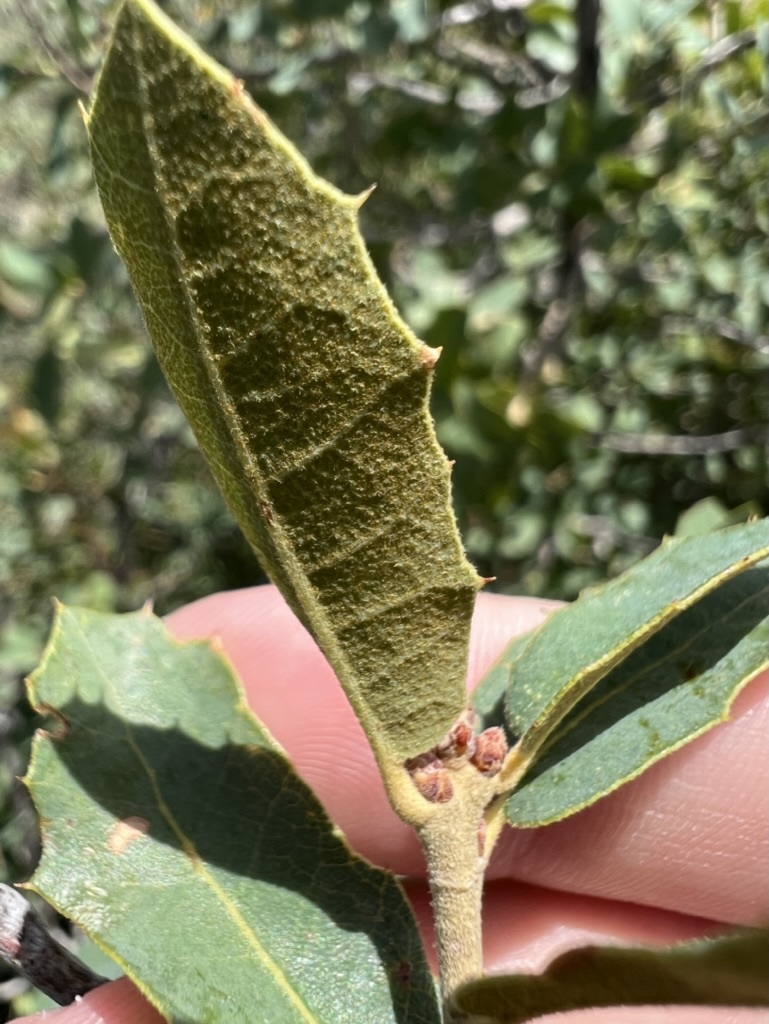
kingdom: Plantae
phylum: Tracheophyta
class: Magnoliopsida
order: Fagales
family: Fagaceae
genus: Quercus
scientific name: Quercus turbinella
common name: Sonoran scrub oak
